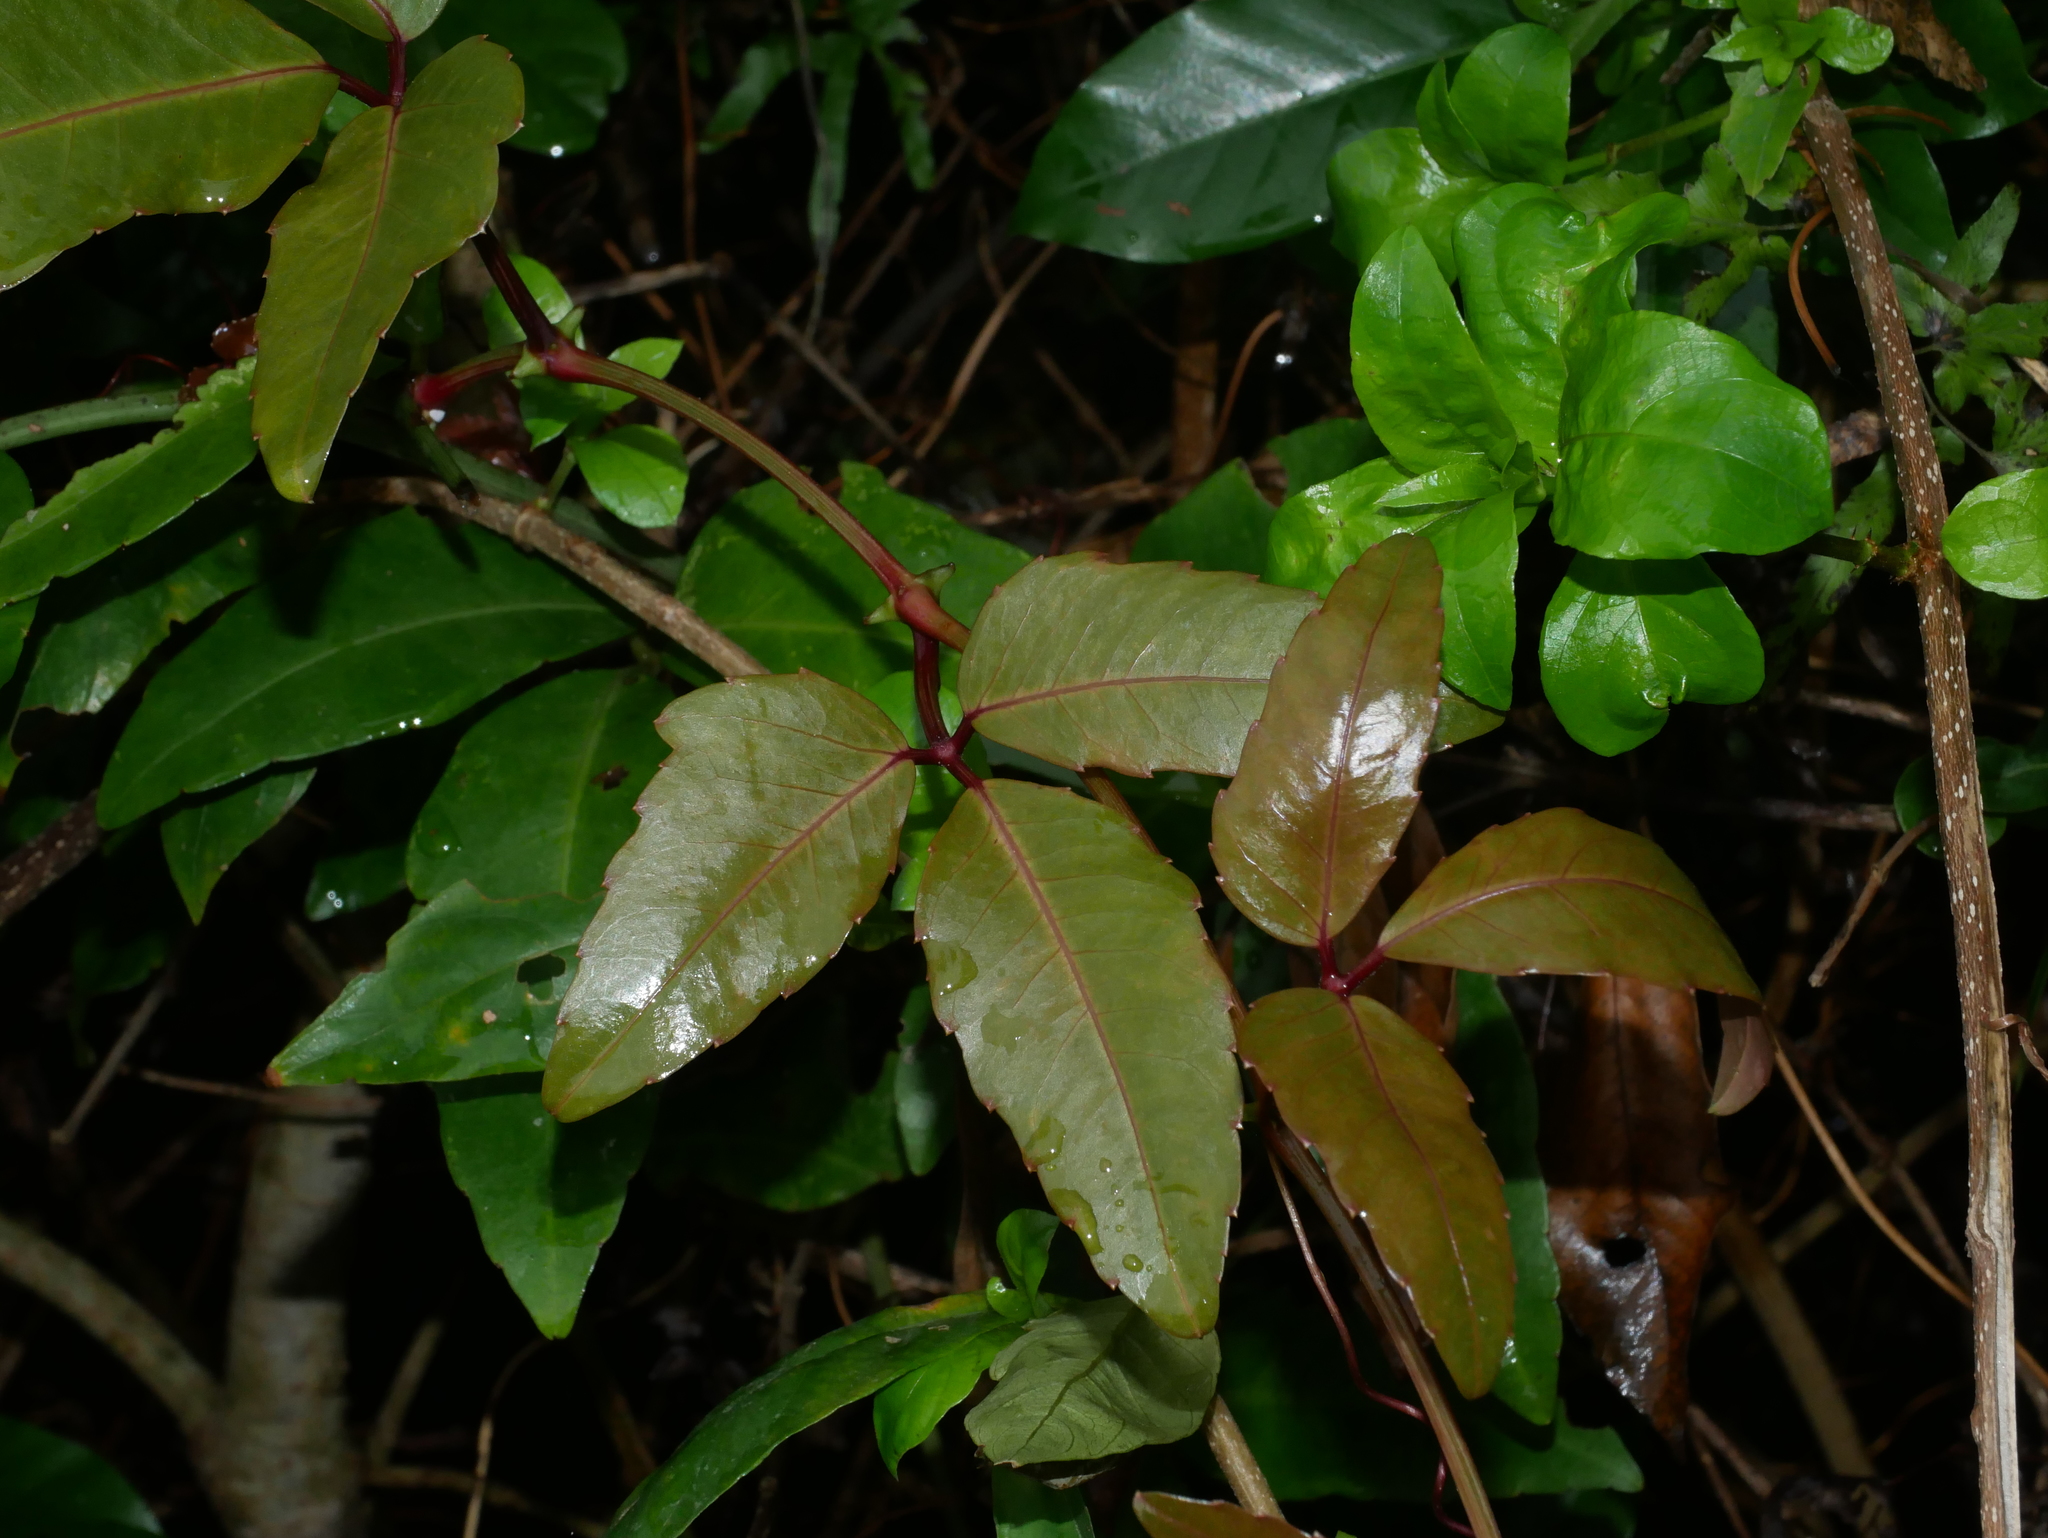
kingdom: Plantae
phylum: Tracheophyta
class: Magnoliopsida
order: Vitales
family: Vitaceae
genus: Tetrastigma
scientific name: Tetrastigma formosanum
